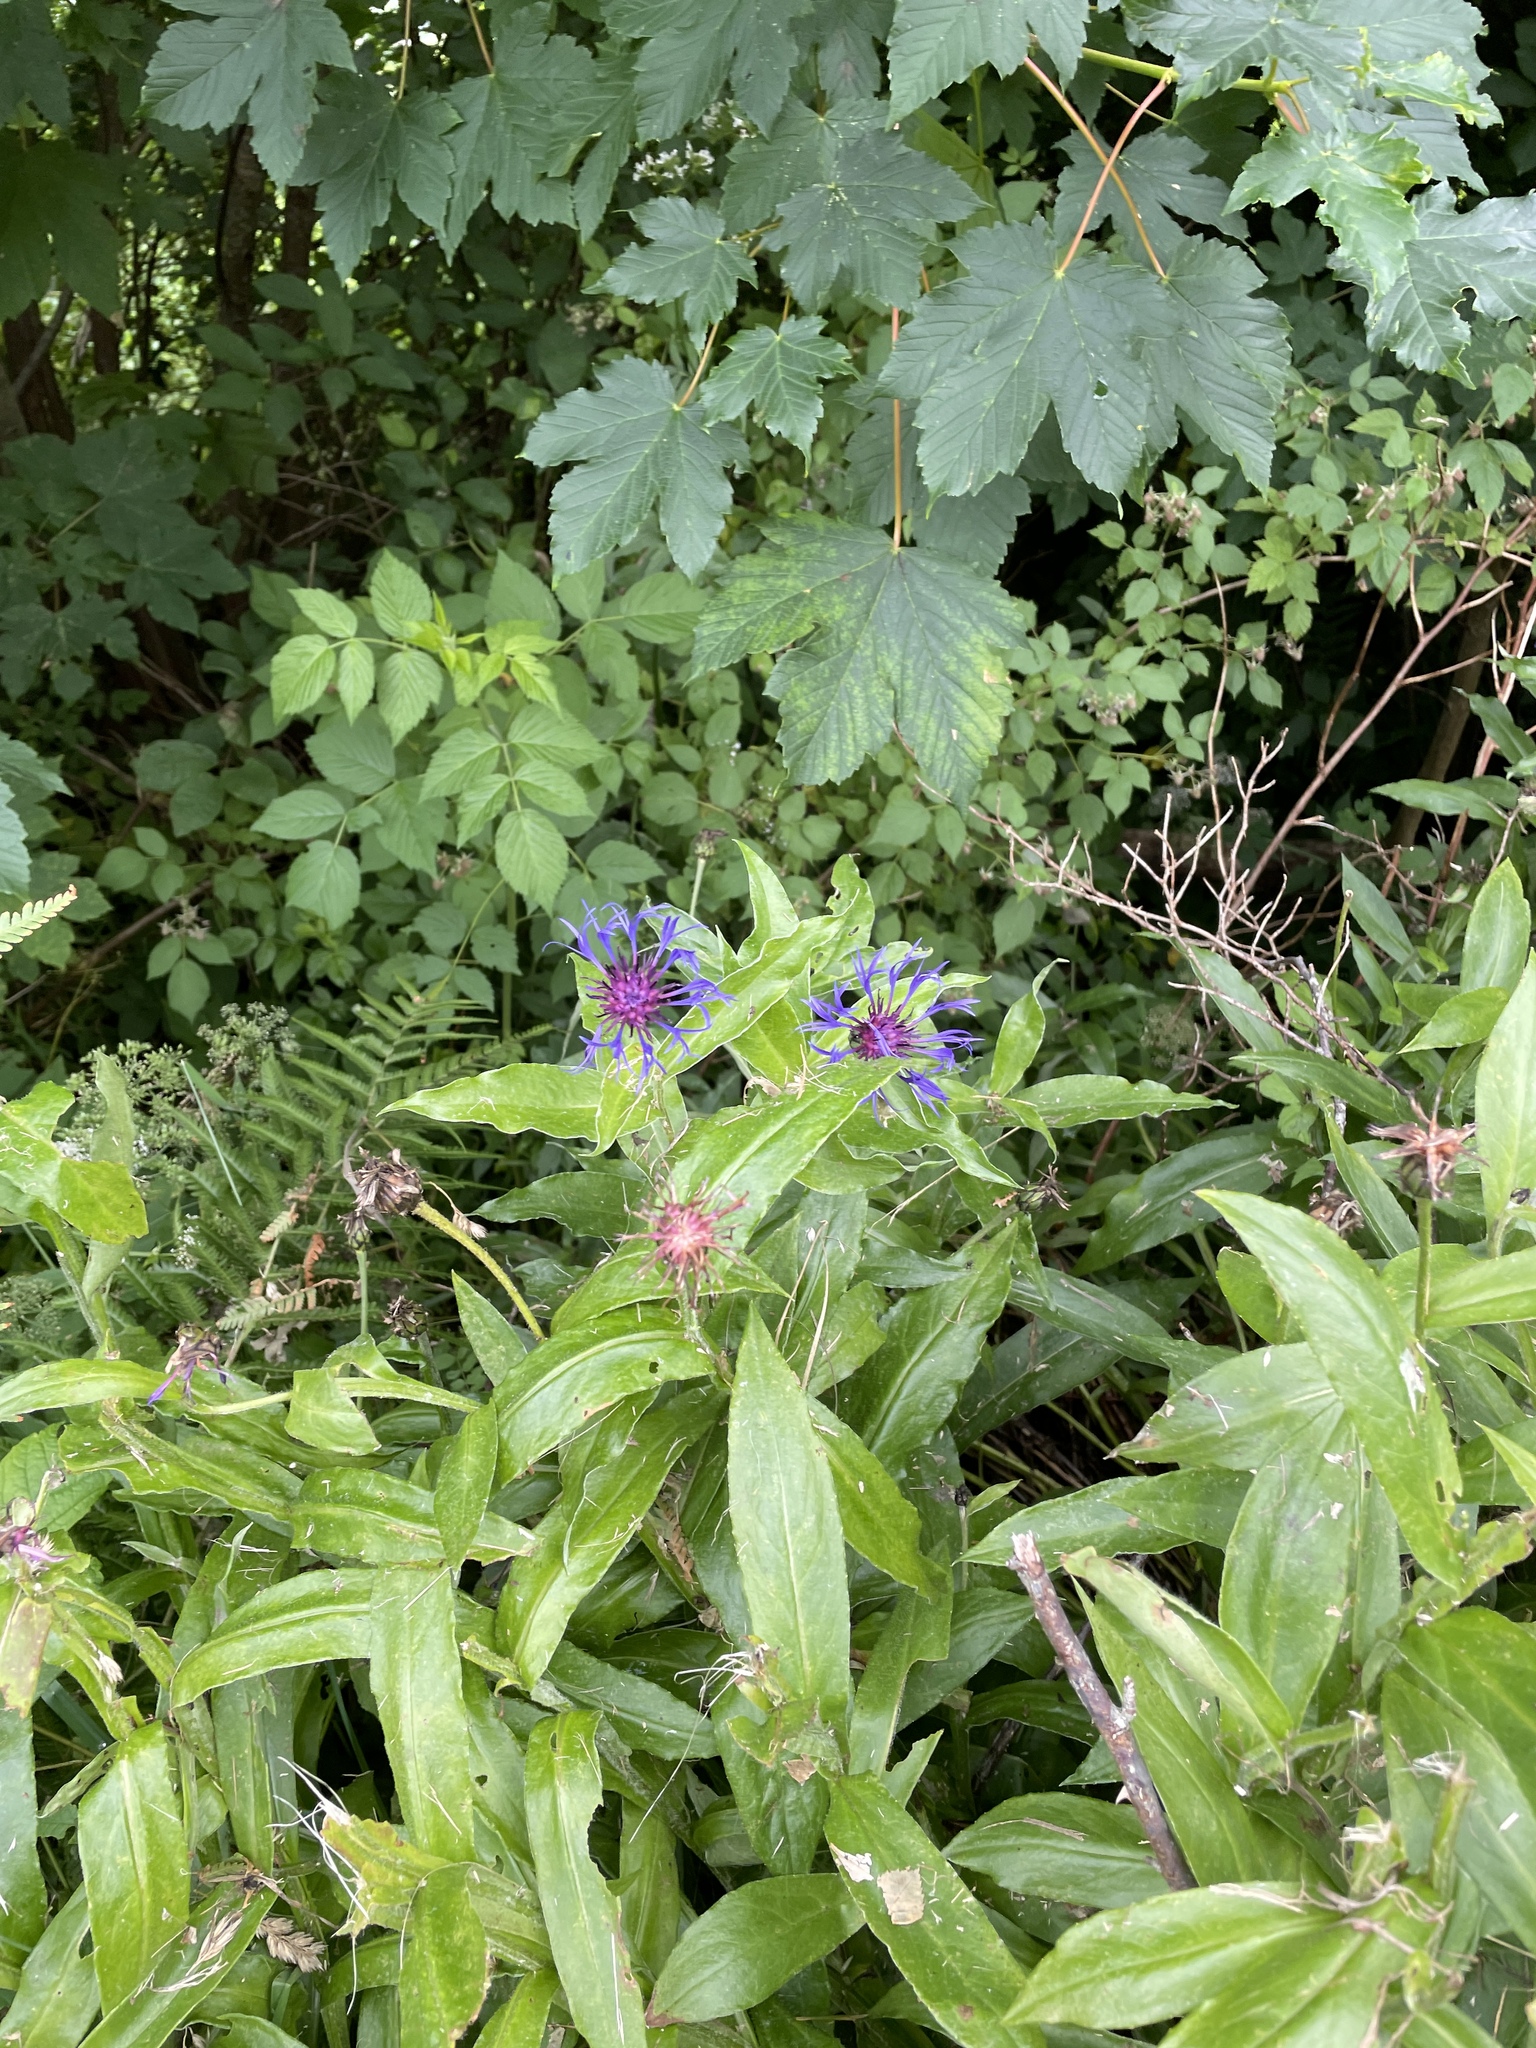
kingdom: Plantae
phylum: Tracheophyta
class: Magnoliopsida
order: Asterales
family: Asteraceae
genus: Centaurea
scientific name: Centaurea montana
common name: Perennial cornflower
